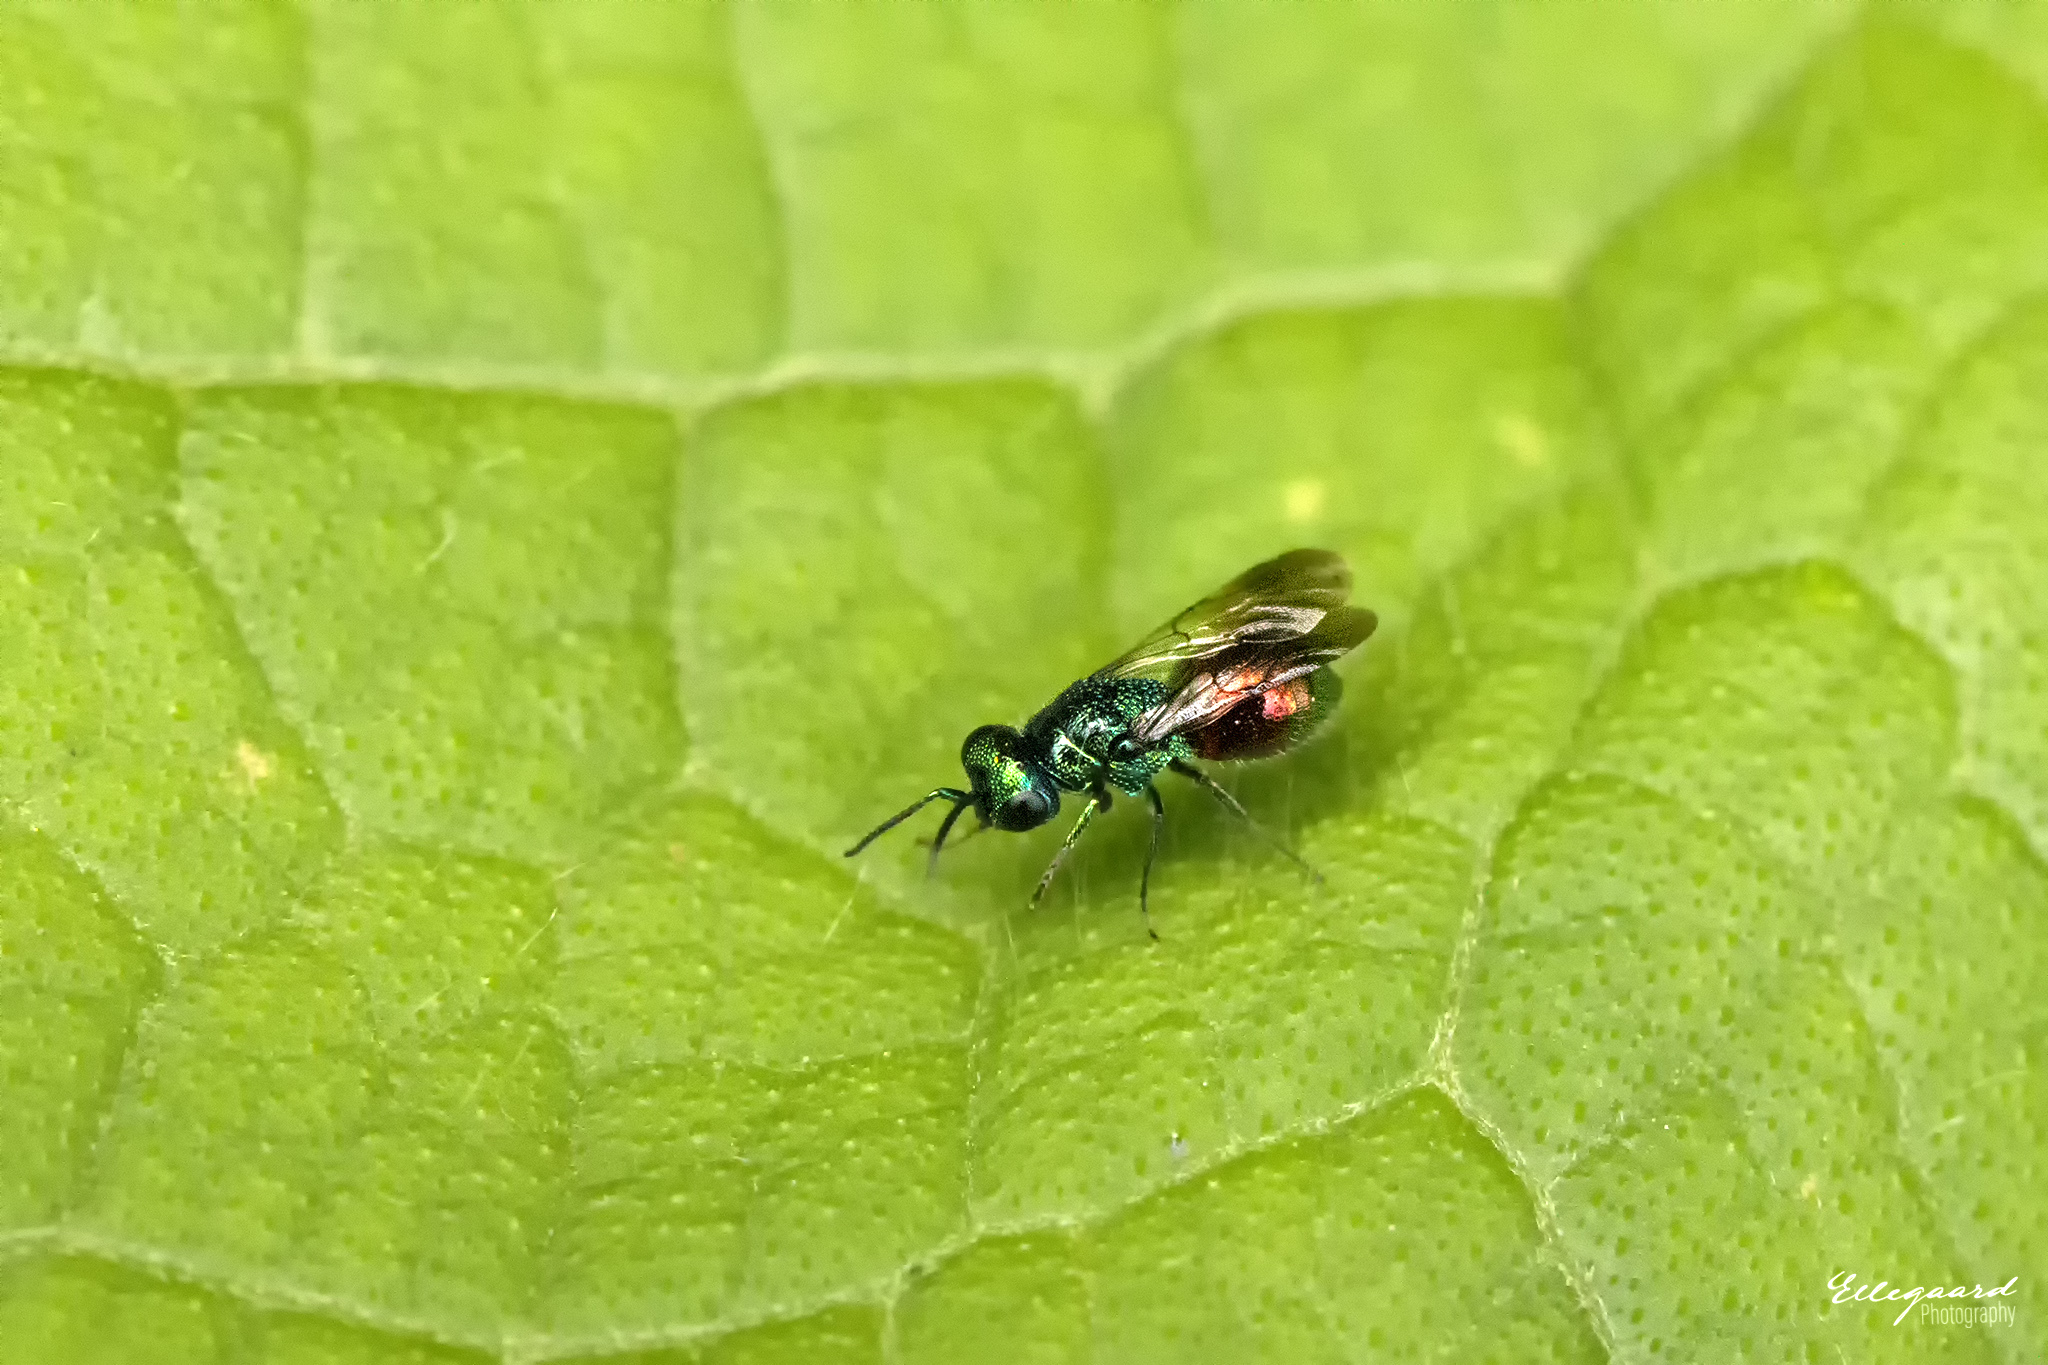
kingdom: Animalia
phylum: Arthropoda
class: Insecta
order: Hymenoptera
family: Chrysididae
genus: Pseudomalus
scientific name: Pseudomalus auratus
